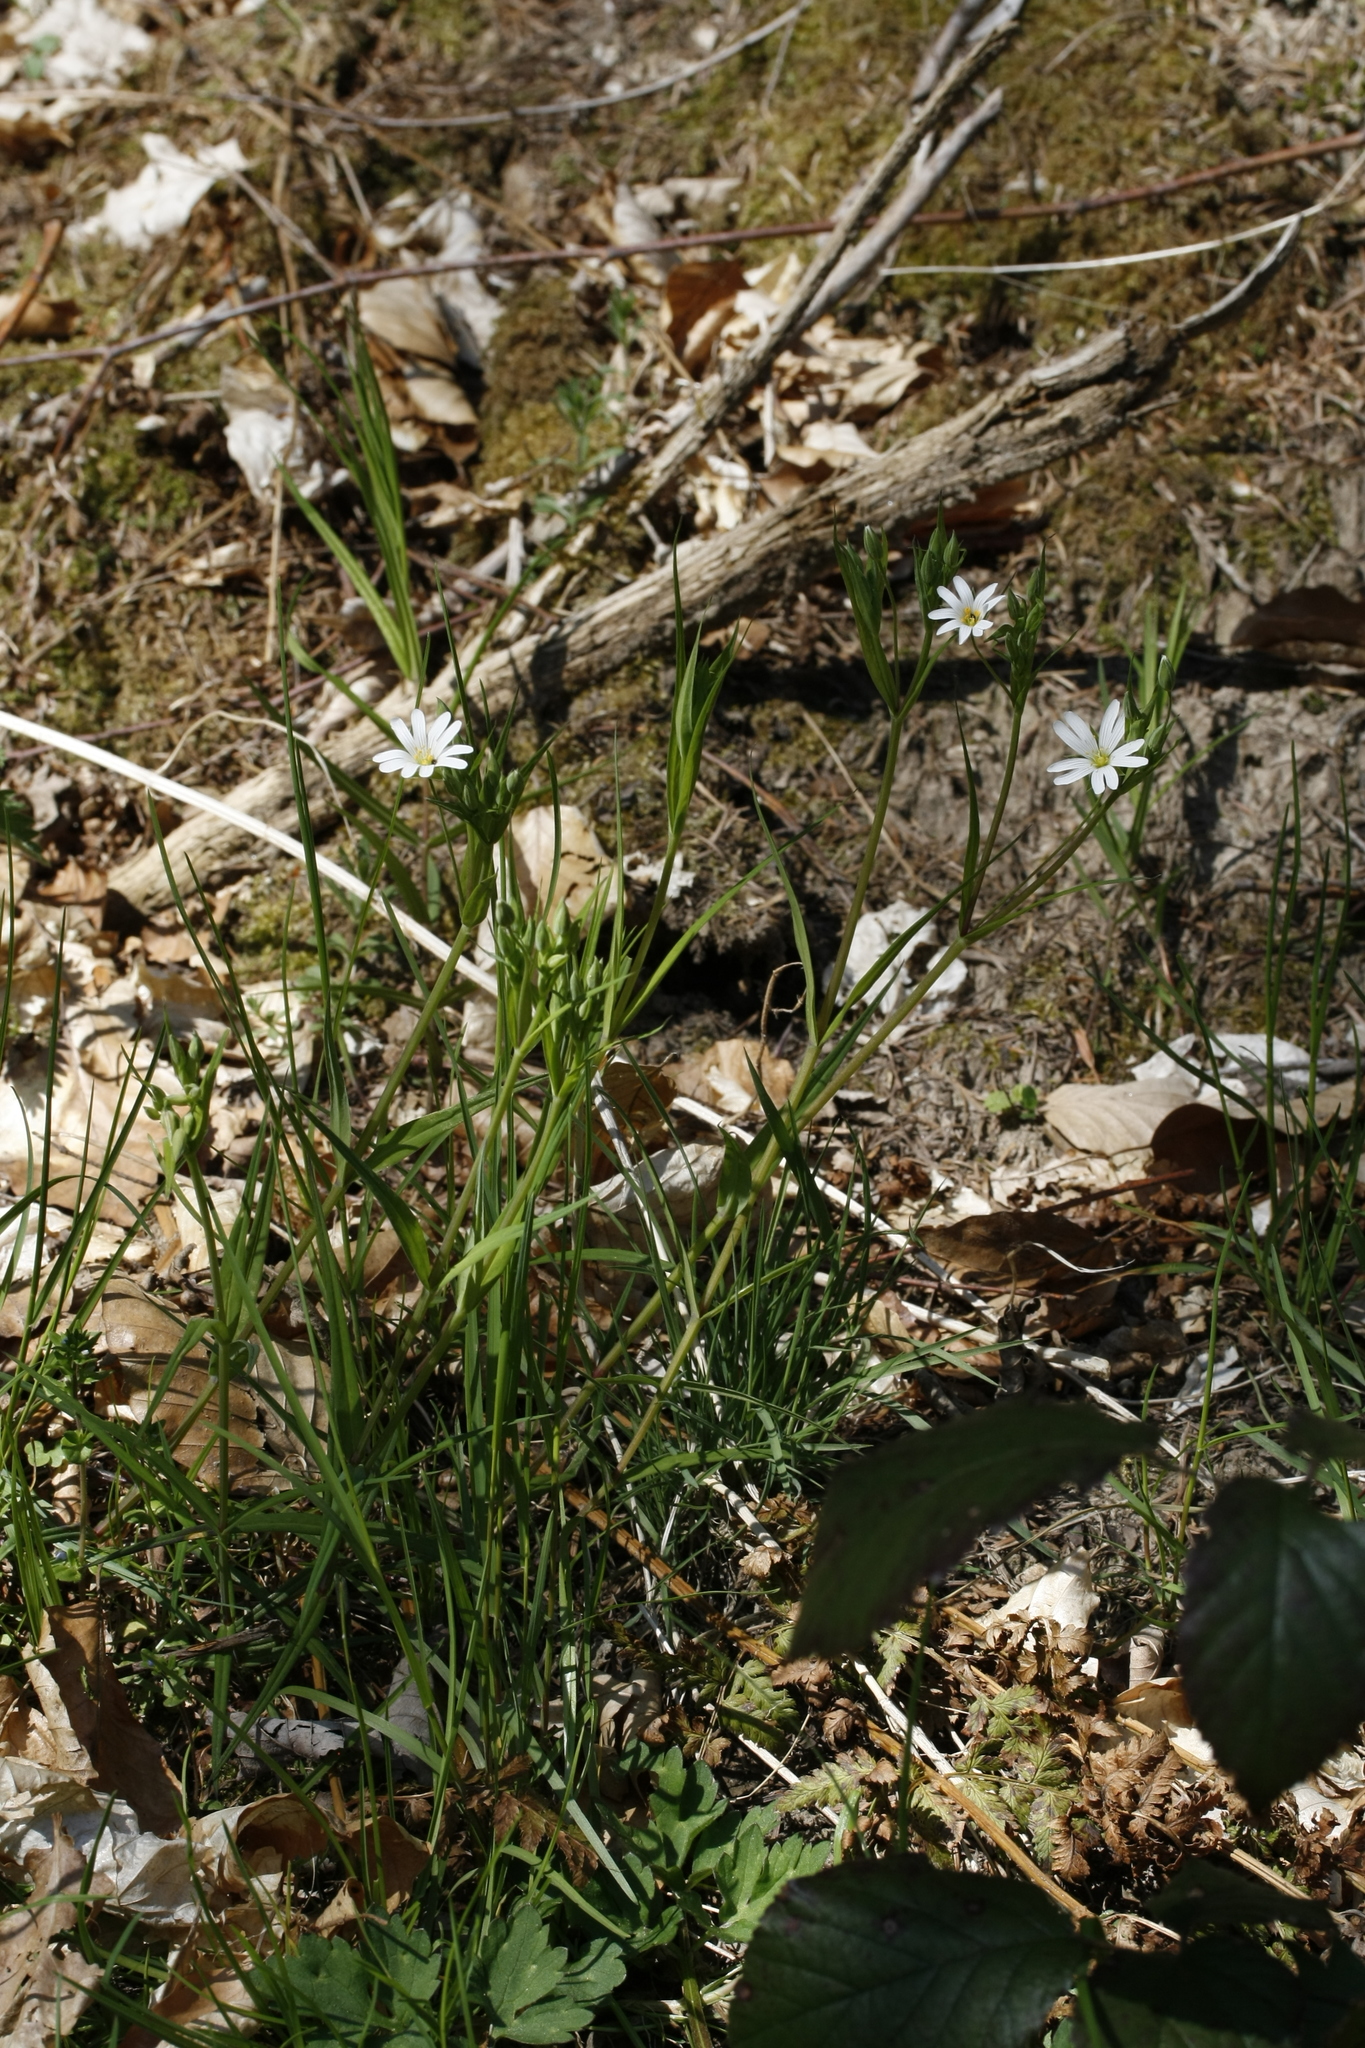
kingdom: Plantae
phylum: Tracheophyta
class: Magnoliopsida
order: Caryophyllales
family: Caryophyllaceae
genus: Rabelera
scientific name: Rabelera holostea
